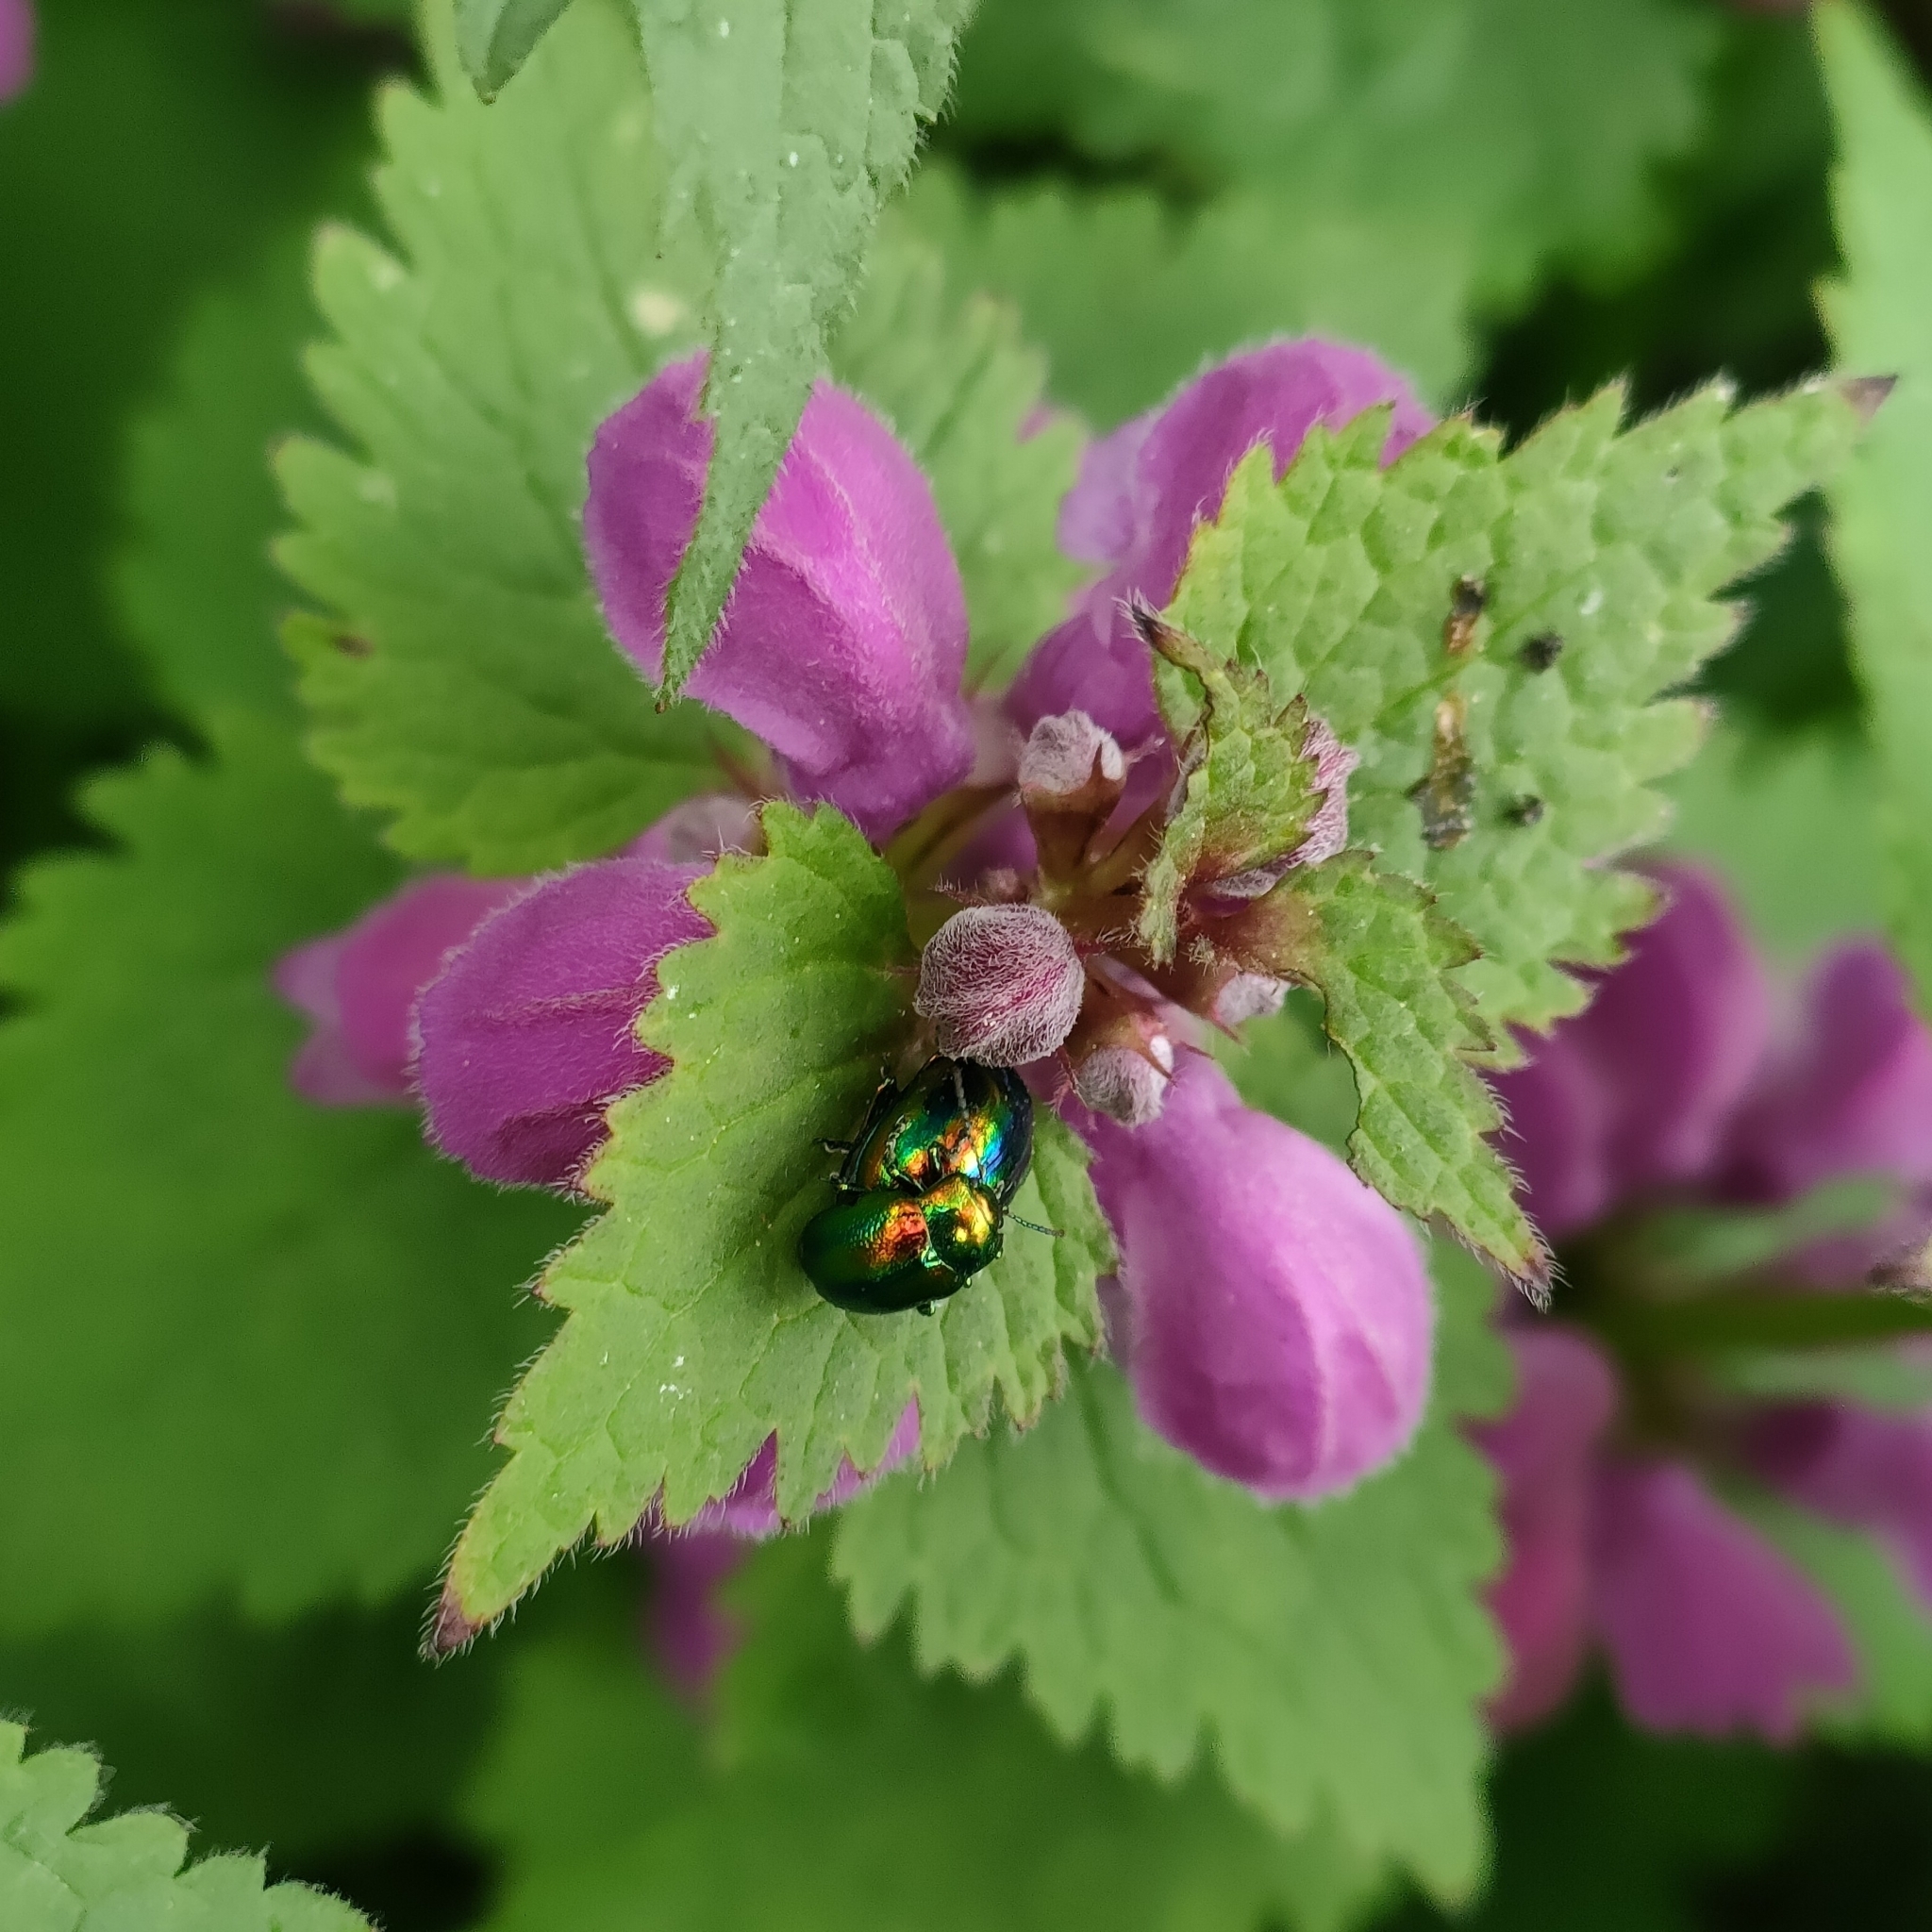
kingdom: Animalia
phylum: Arthropoda
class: Insecta
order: Coleoptera
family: Chrysomelidae
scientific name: Chrysomelidae
